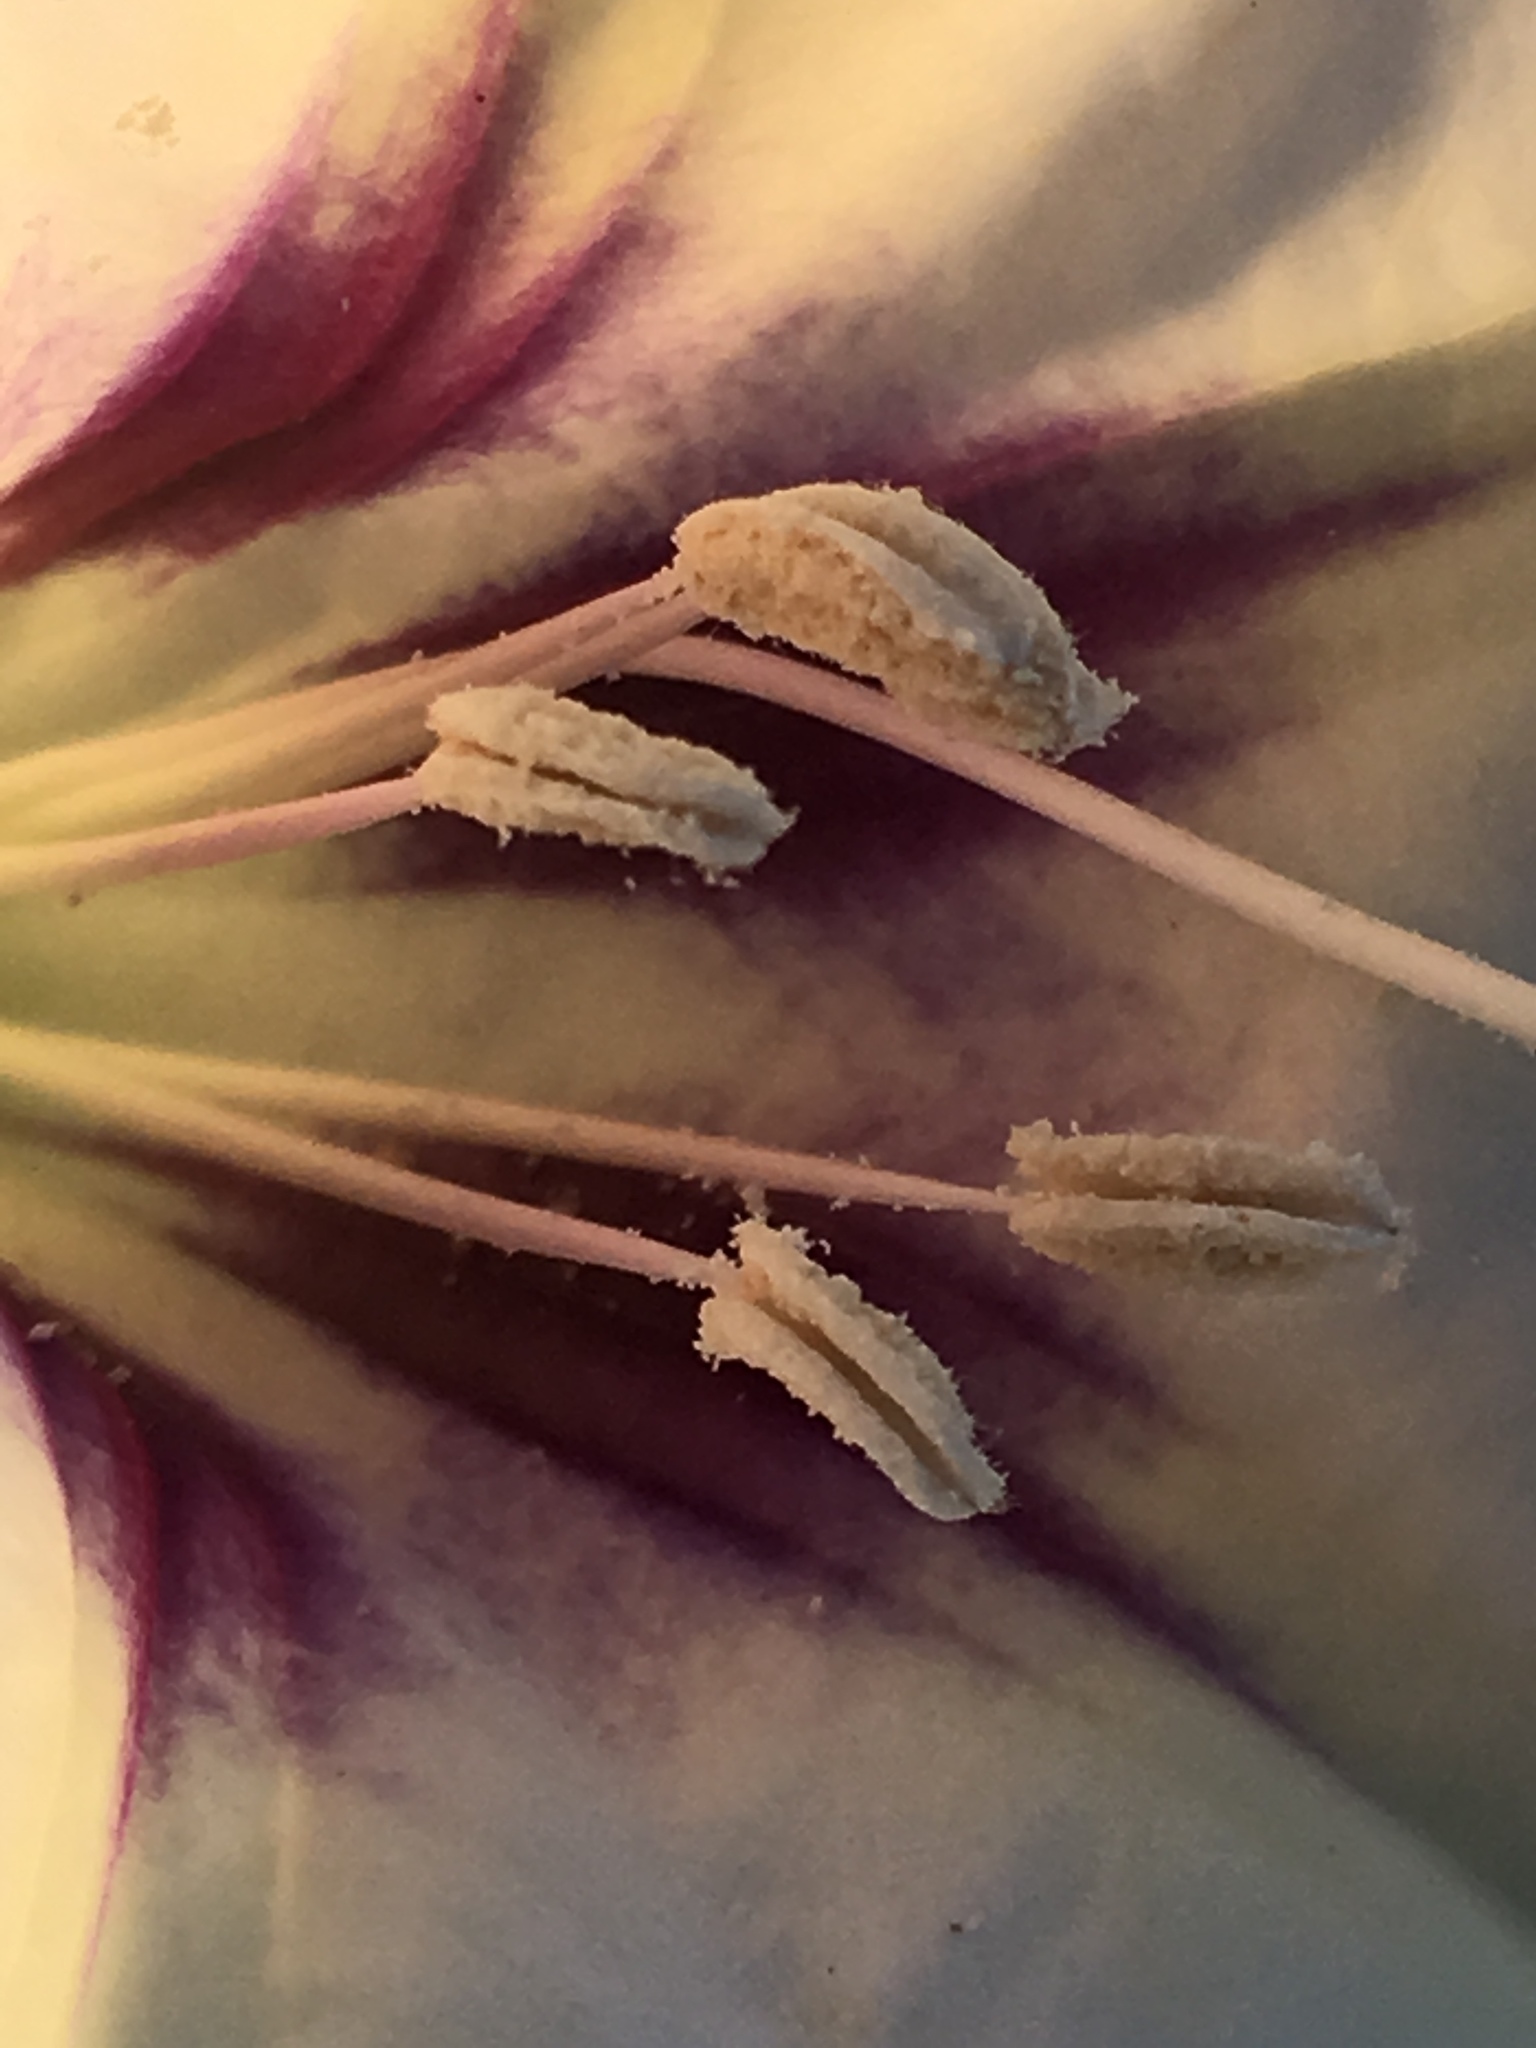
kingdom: Plantae
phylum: Tracheophyta
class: Magnoliopsida
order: Solanales
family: Solanaceae
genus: Datura
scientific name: Datura discolor
